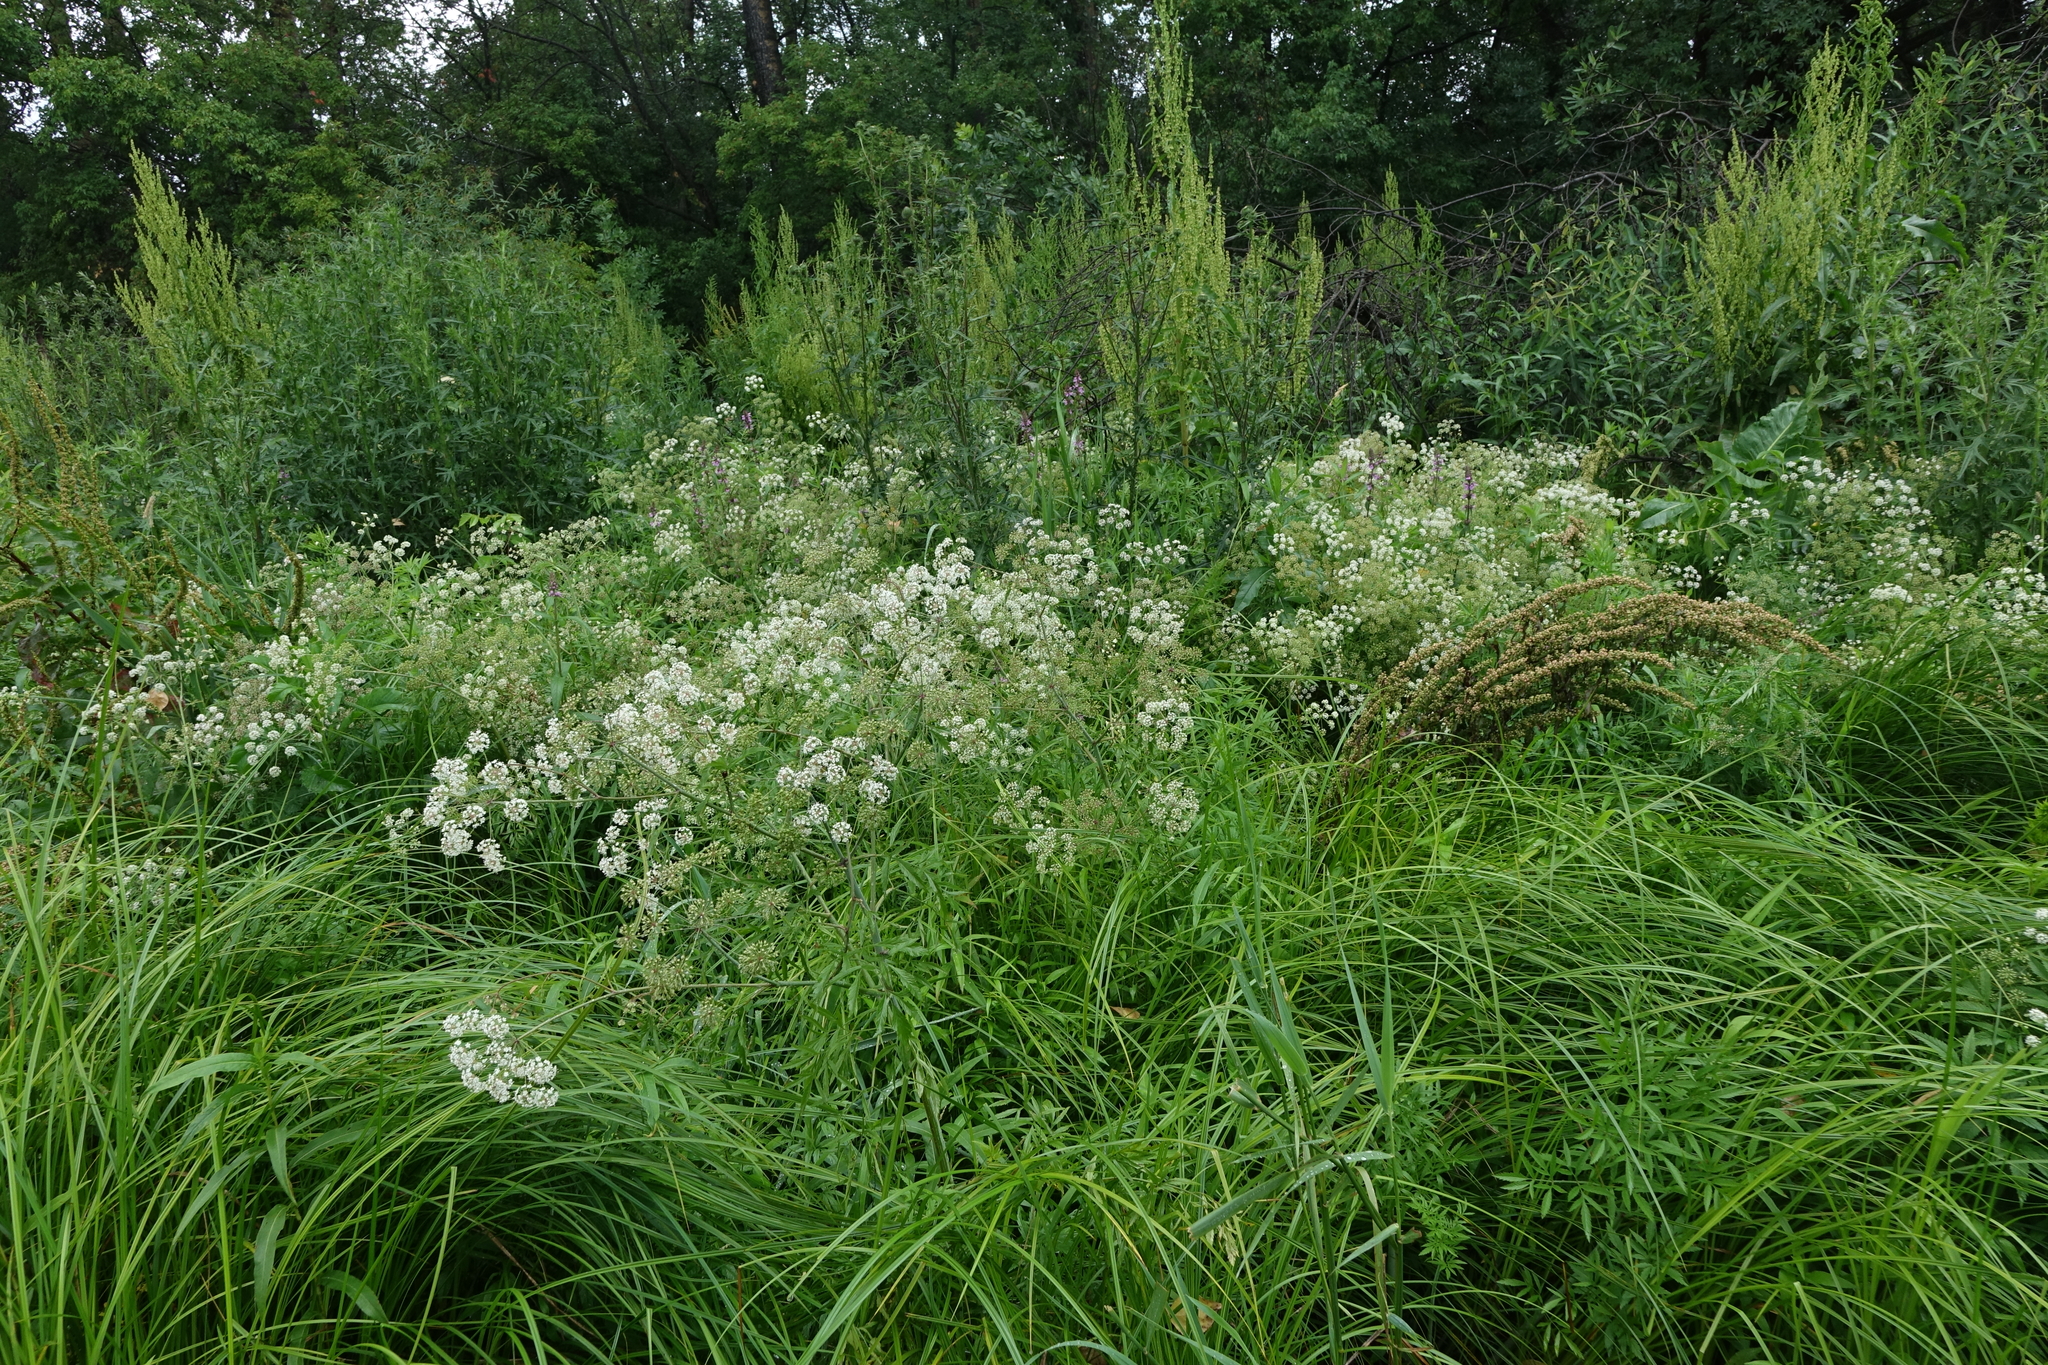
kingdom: Plantae
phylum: Tracheophyta
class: Magnoliopsida
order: Apiales
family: Apiaceae
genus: Cicuta
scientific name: Cicuta virosa
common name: Cowbane
